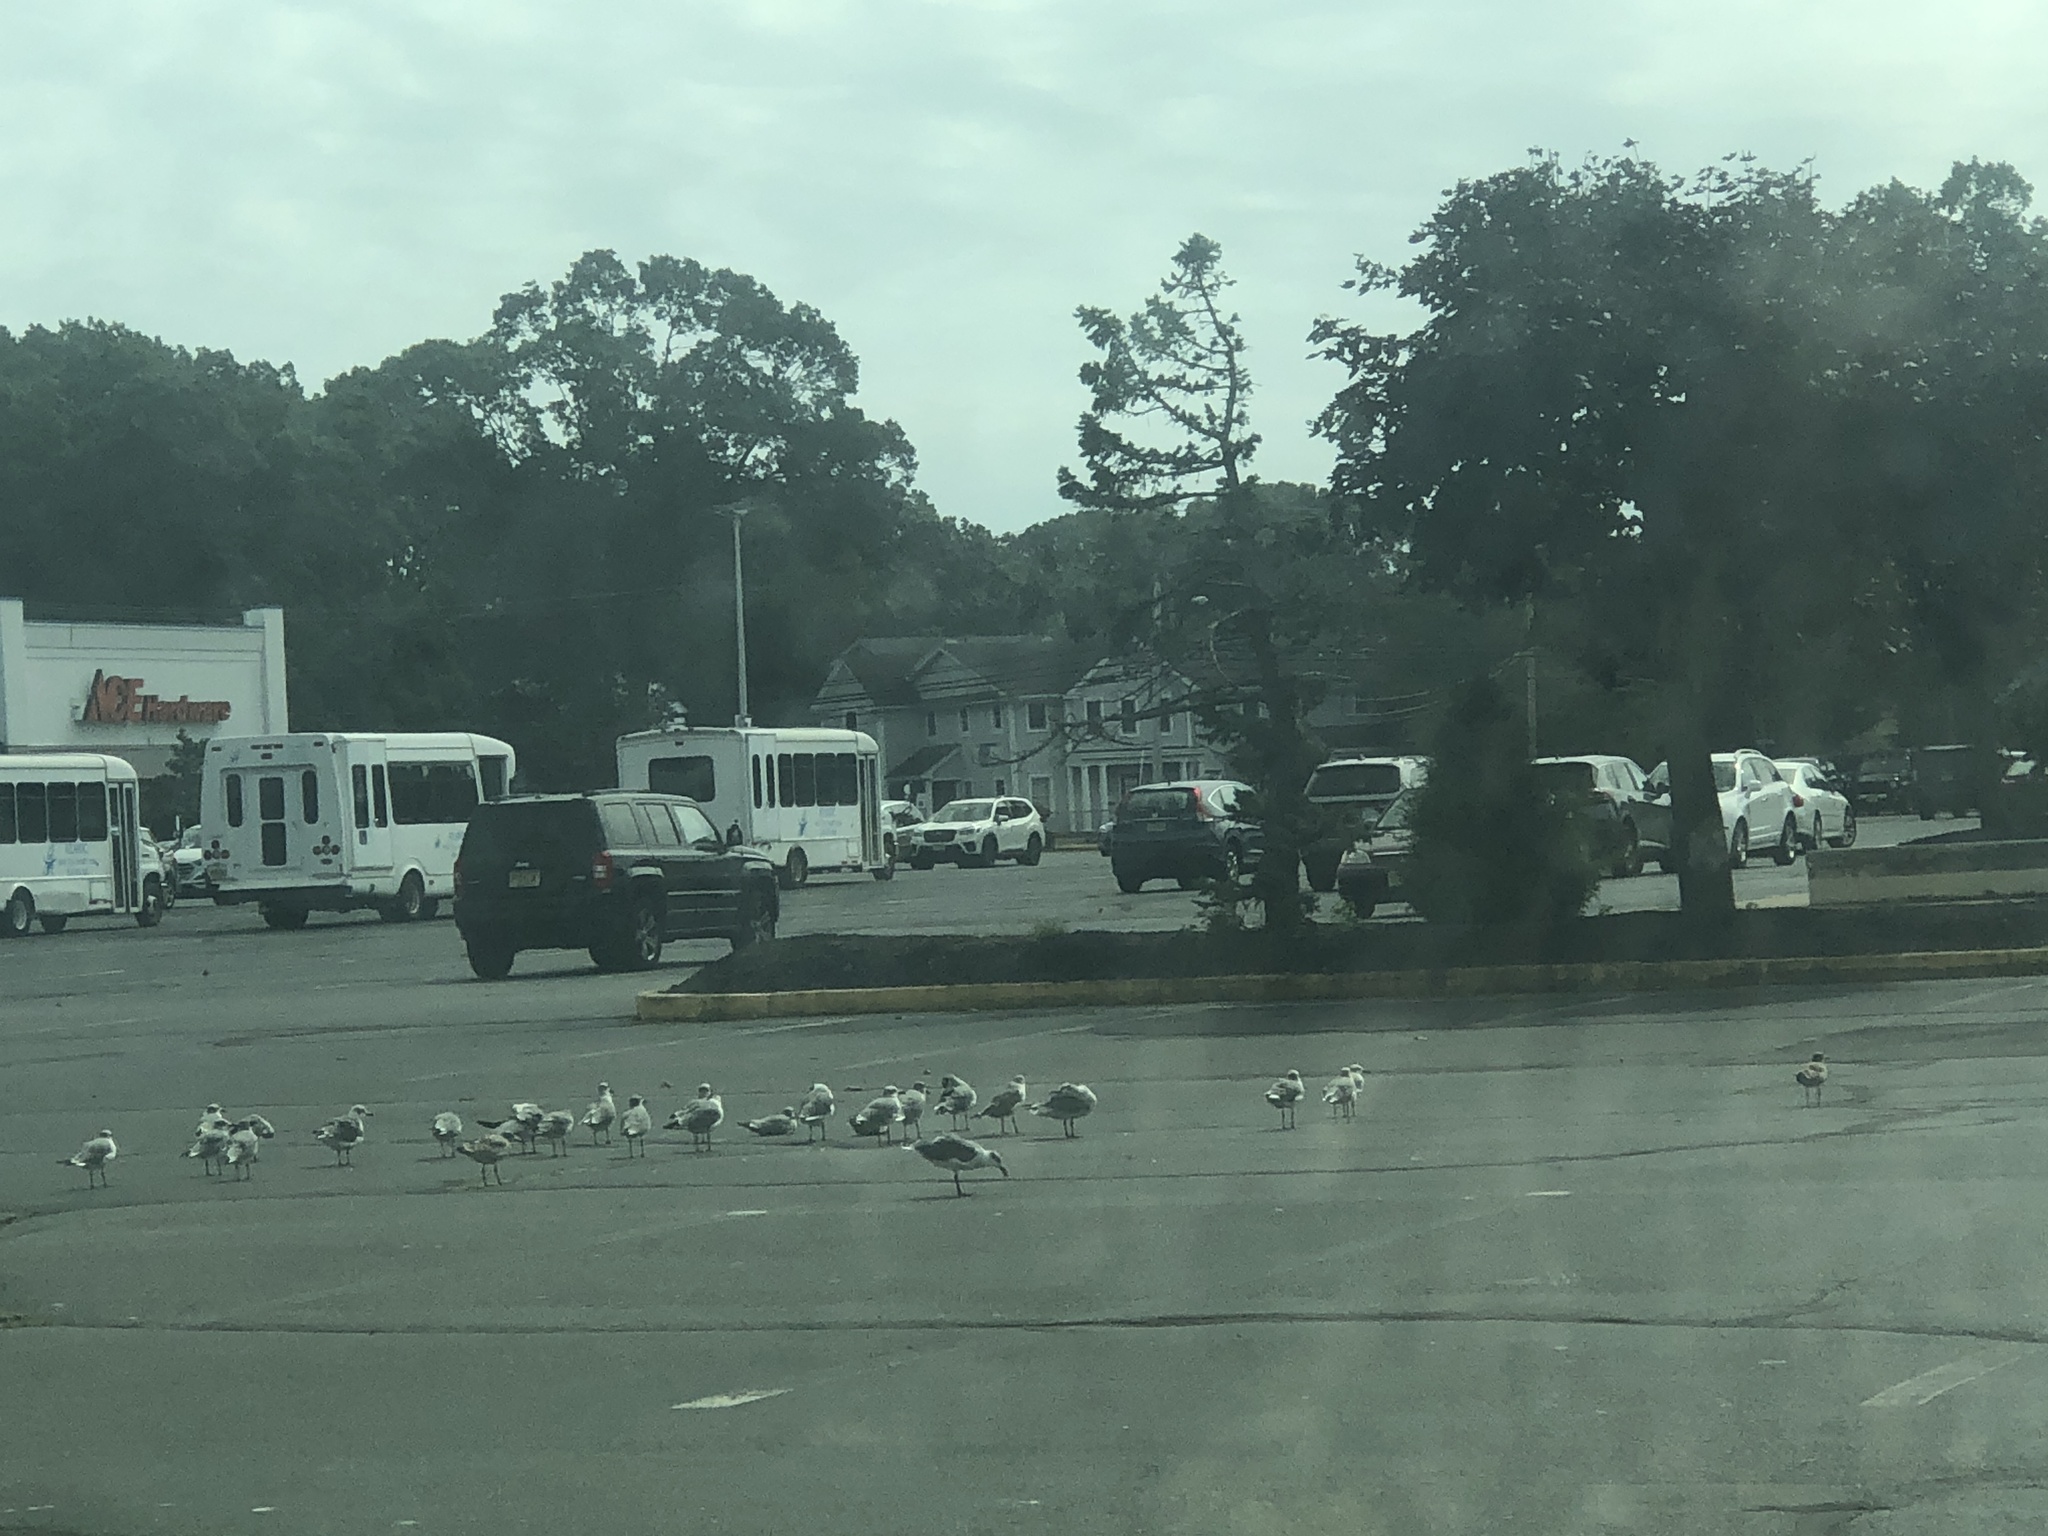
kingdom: Animalia
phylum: Chordata
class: Aves
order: Charadriiformes
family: Laridae
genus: Leucophaeus
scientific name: Leucophaeus atricilla
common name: Laughing gull
